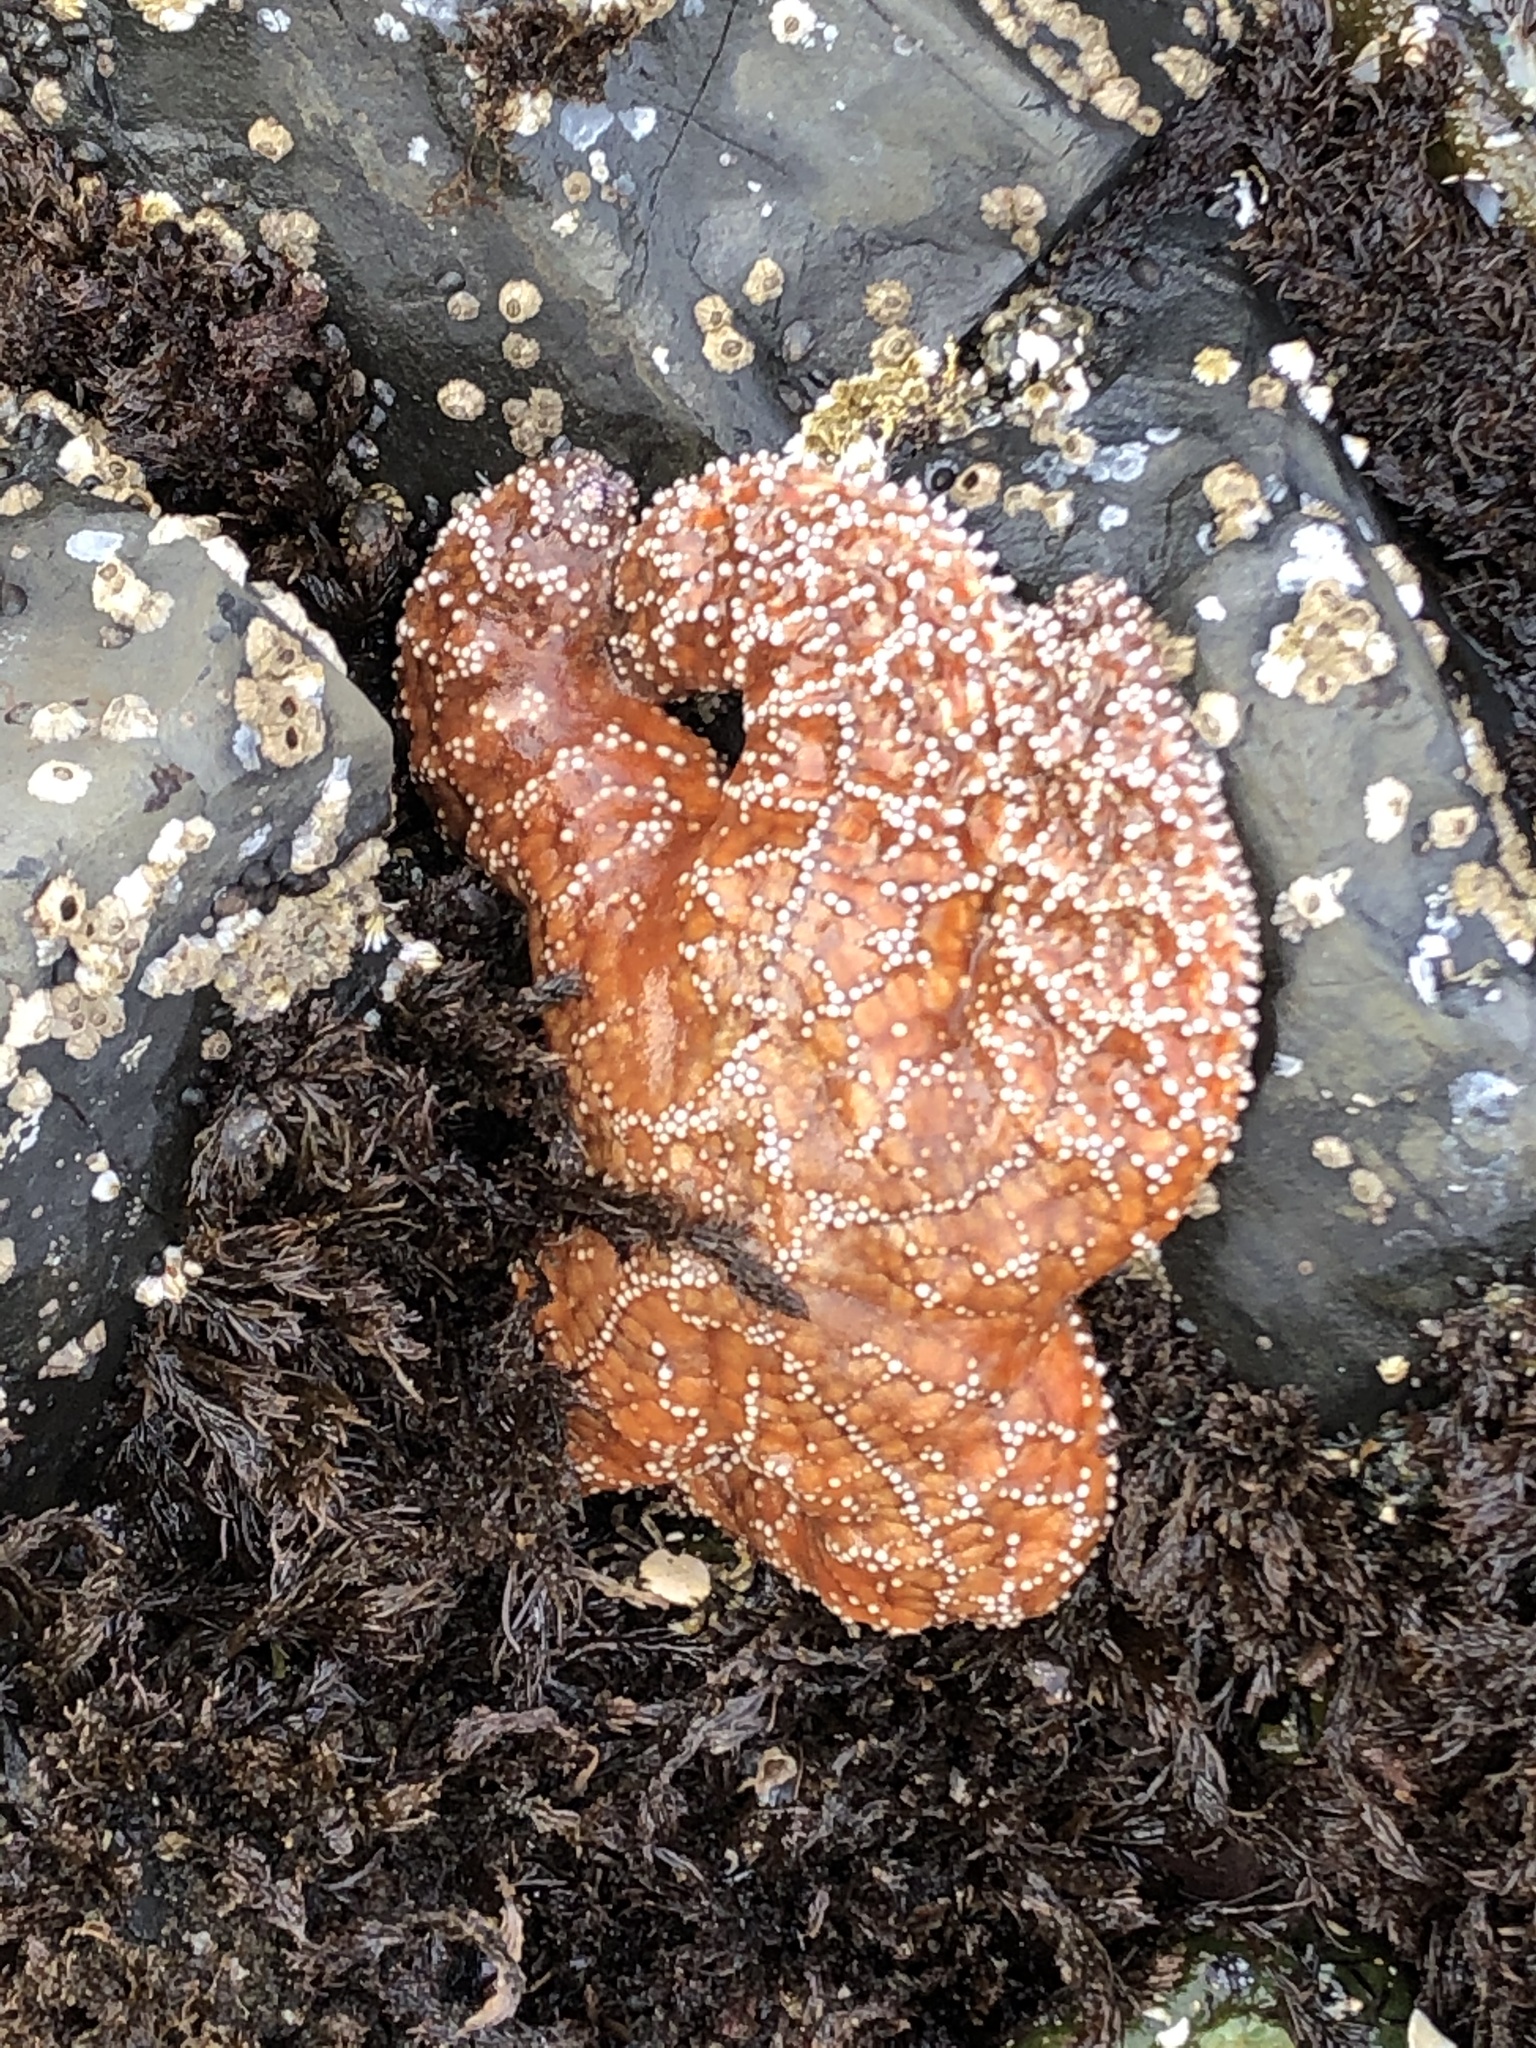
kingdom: Animalia
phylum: Echinodermata
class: Asteroidea
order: Forcipulatida
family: Asteriidae
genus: Pisaster
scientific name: Pisaster ochraceus
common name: Ochre stars
